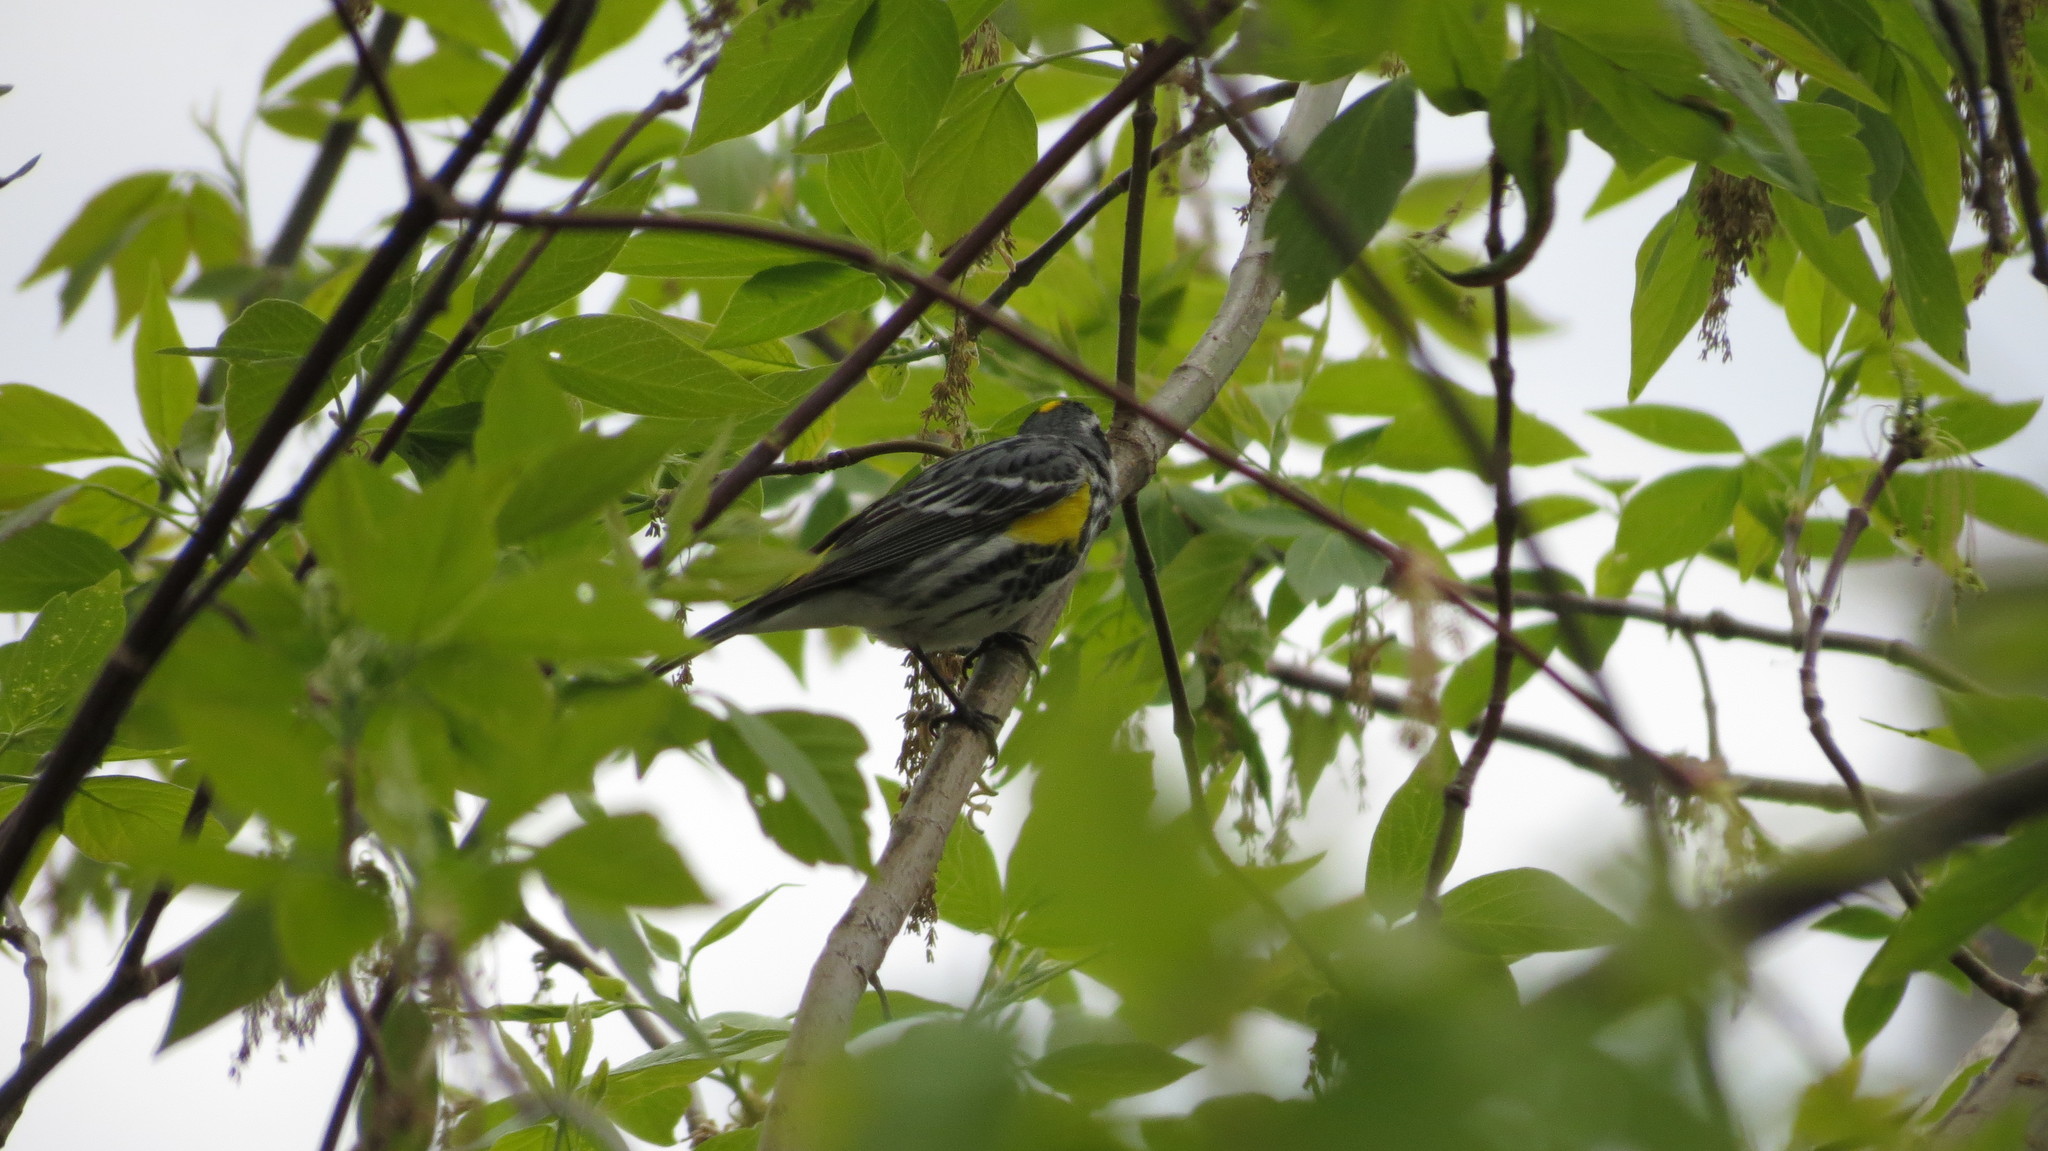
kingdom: Animalia
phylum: Chordata
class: Aves
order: Passeriformes
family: Parulidae
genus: Setophaga
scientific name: Setophaga coronata
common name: Myrtle warbler
